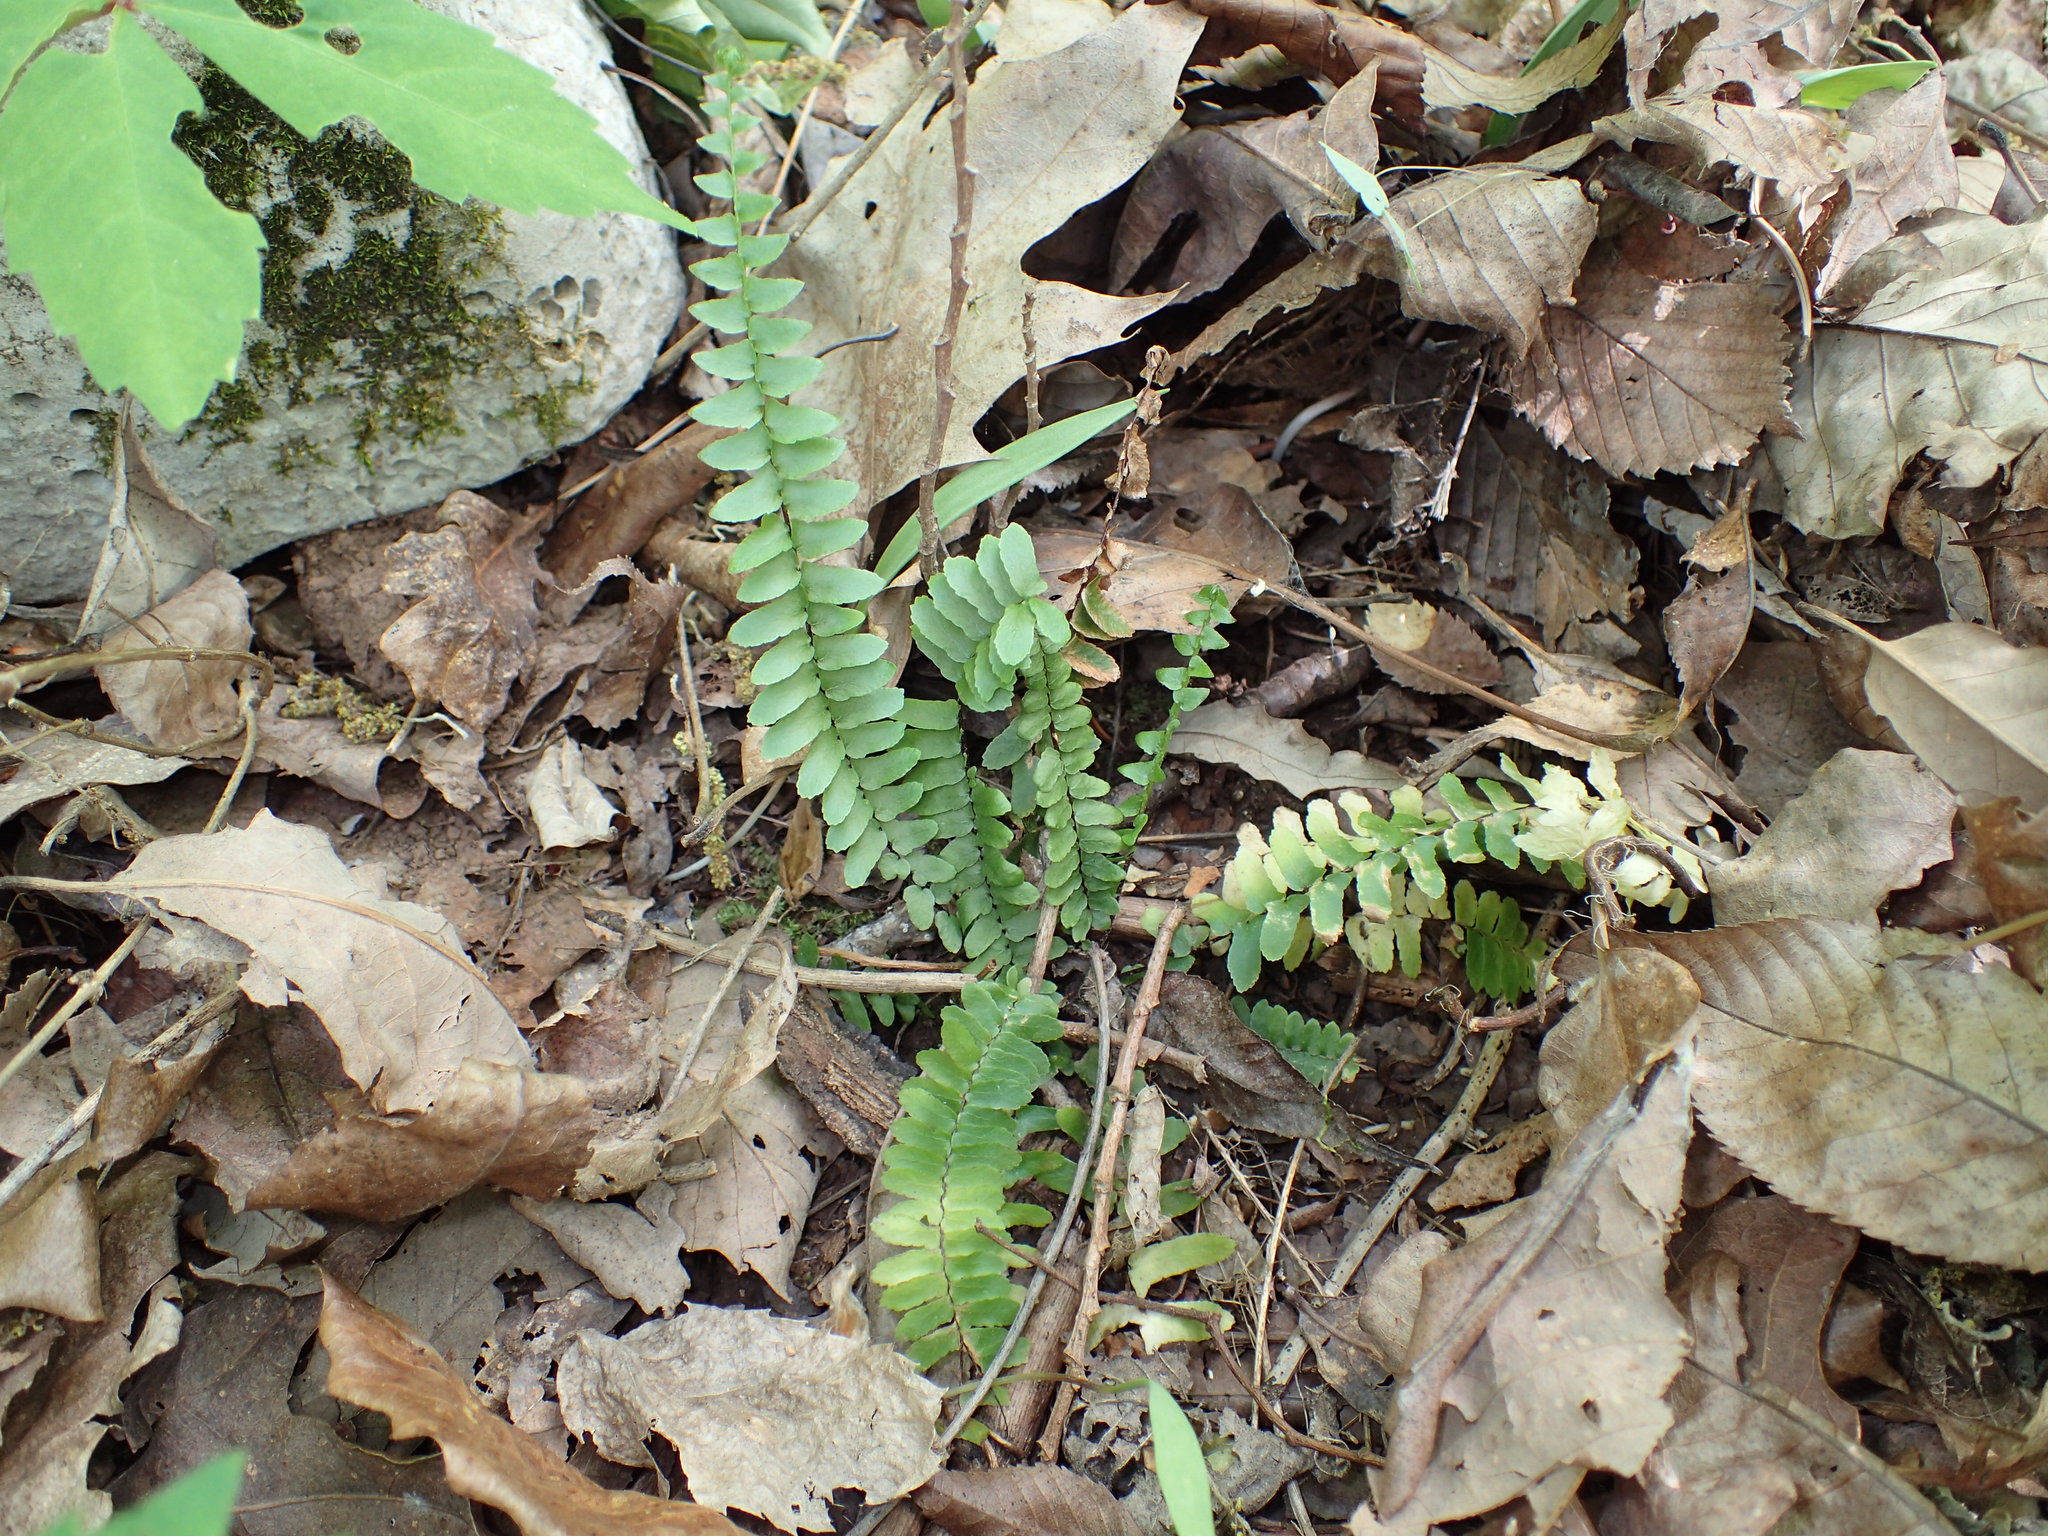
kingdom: Plantae
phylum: Tracheophyta
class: Polypodiopsida
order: Polypodiales
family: Aspleniaceae
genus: Asplenium
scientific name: Asplenium platyneuron
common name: Ebony spleenwort
